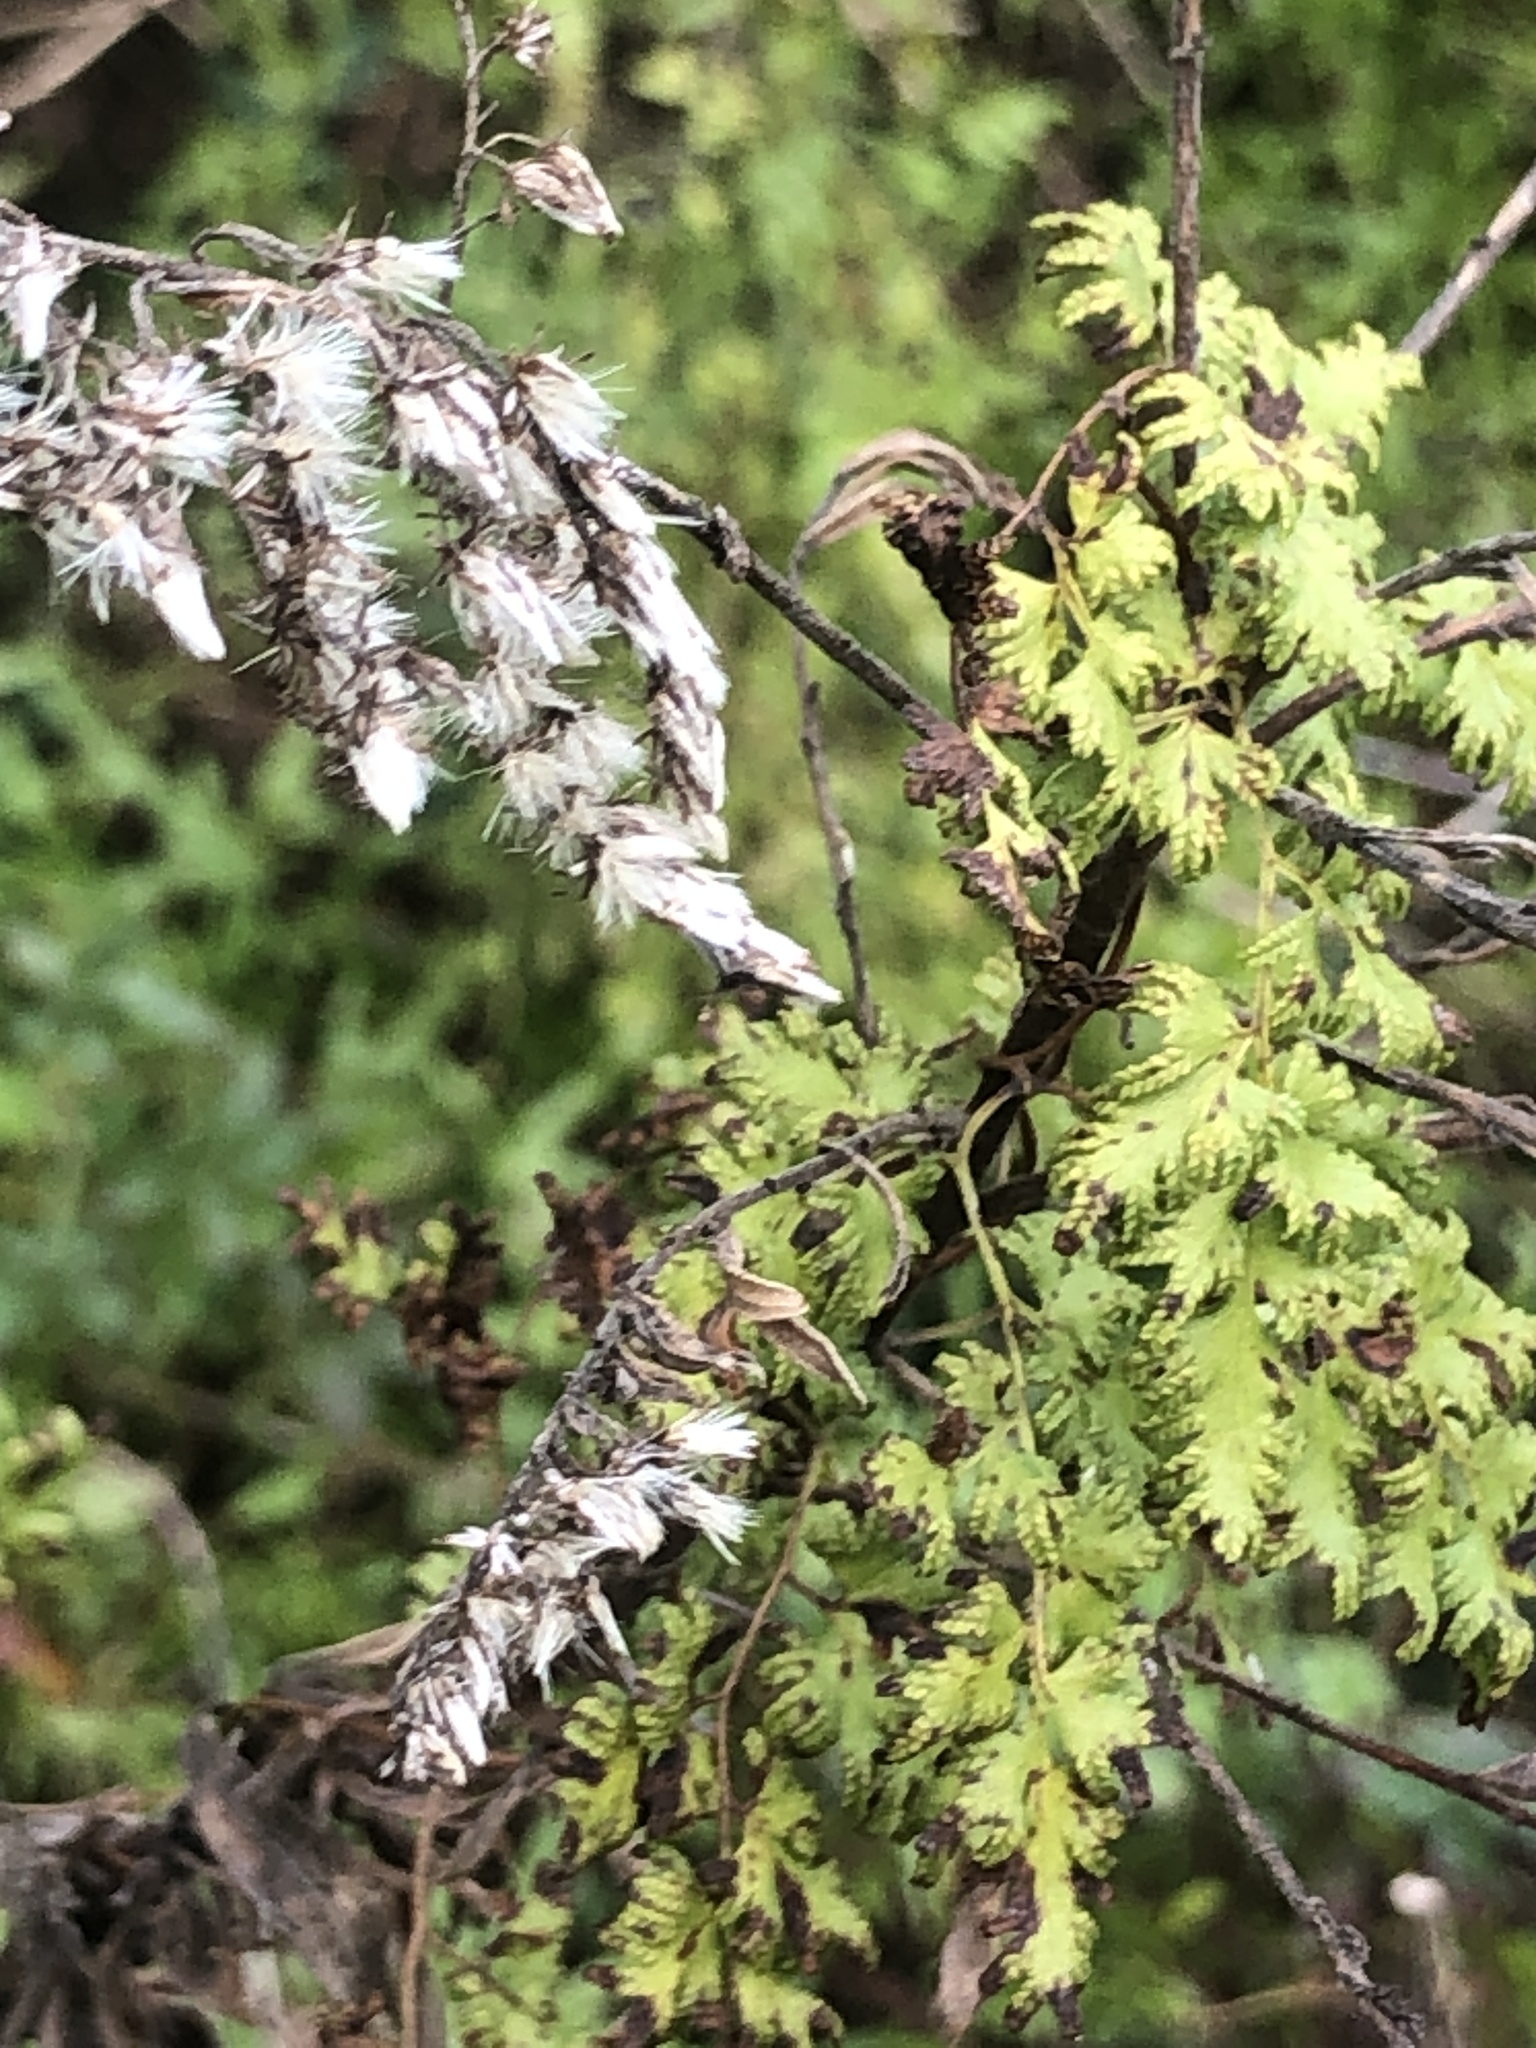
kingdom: Plantae
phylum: Tracheophyta
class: Polypodiopsida
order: Schizaeales
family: Lygodiaceae
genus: Lygodium
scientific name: Lygodium japonicum
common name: Japanese climbing fern
